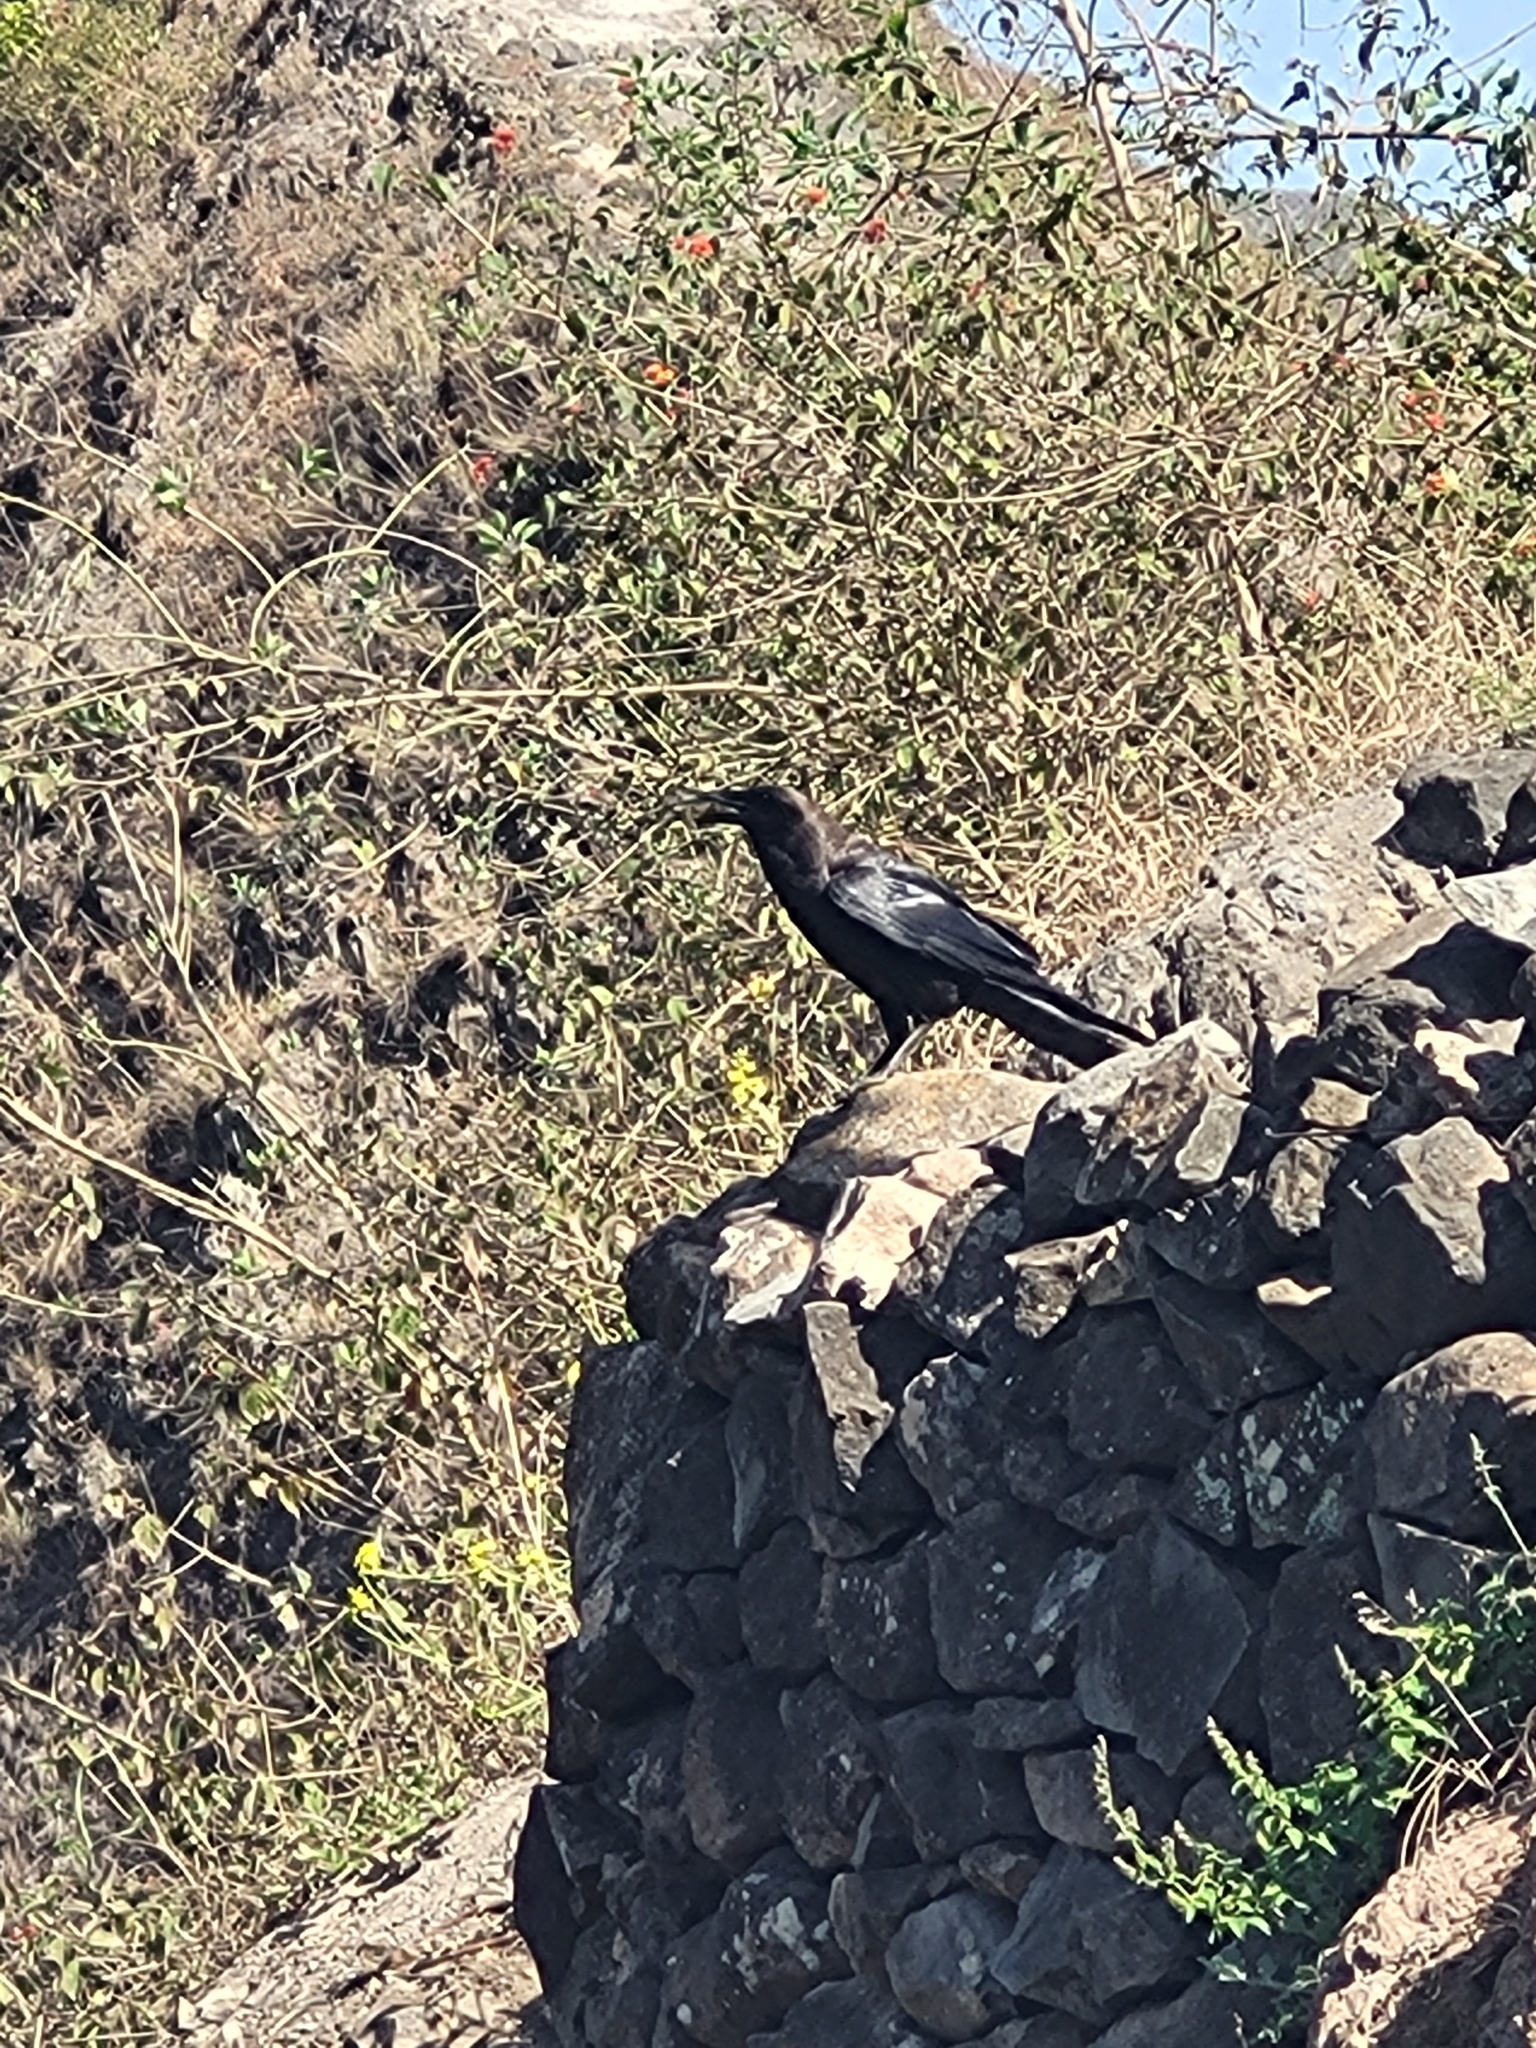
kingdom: Animalia
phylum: Chordata
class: Aves
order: Passeriformes
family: Corvidae
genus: Corvus
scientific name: Corvus ruficollis
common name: Brown-necked raven
